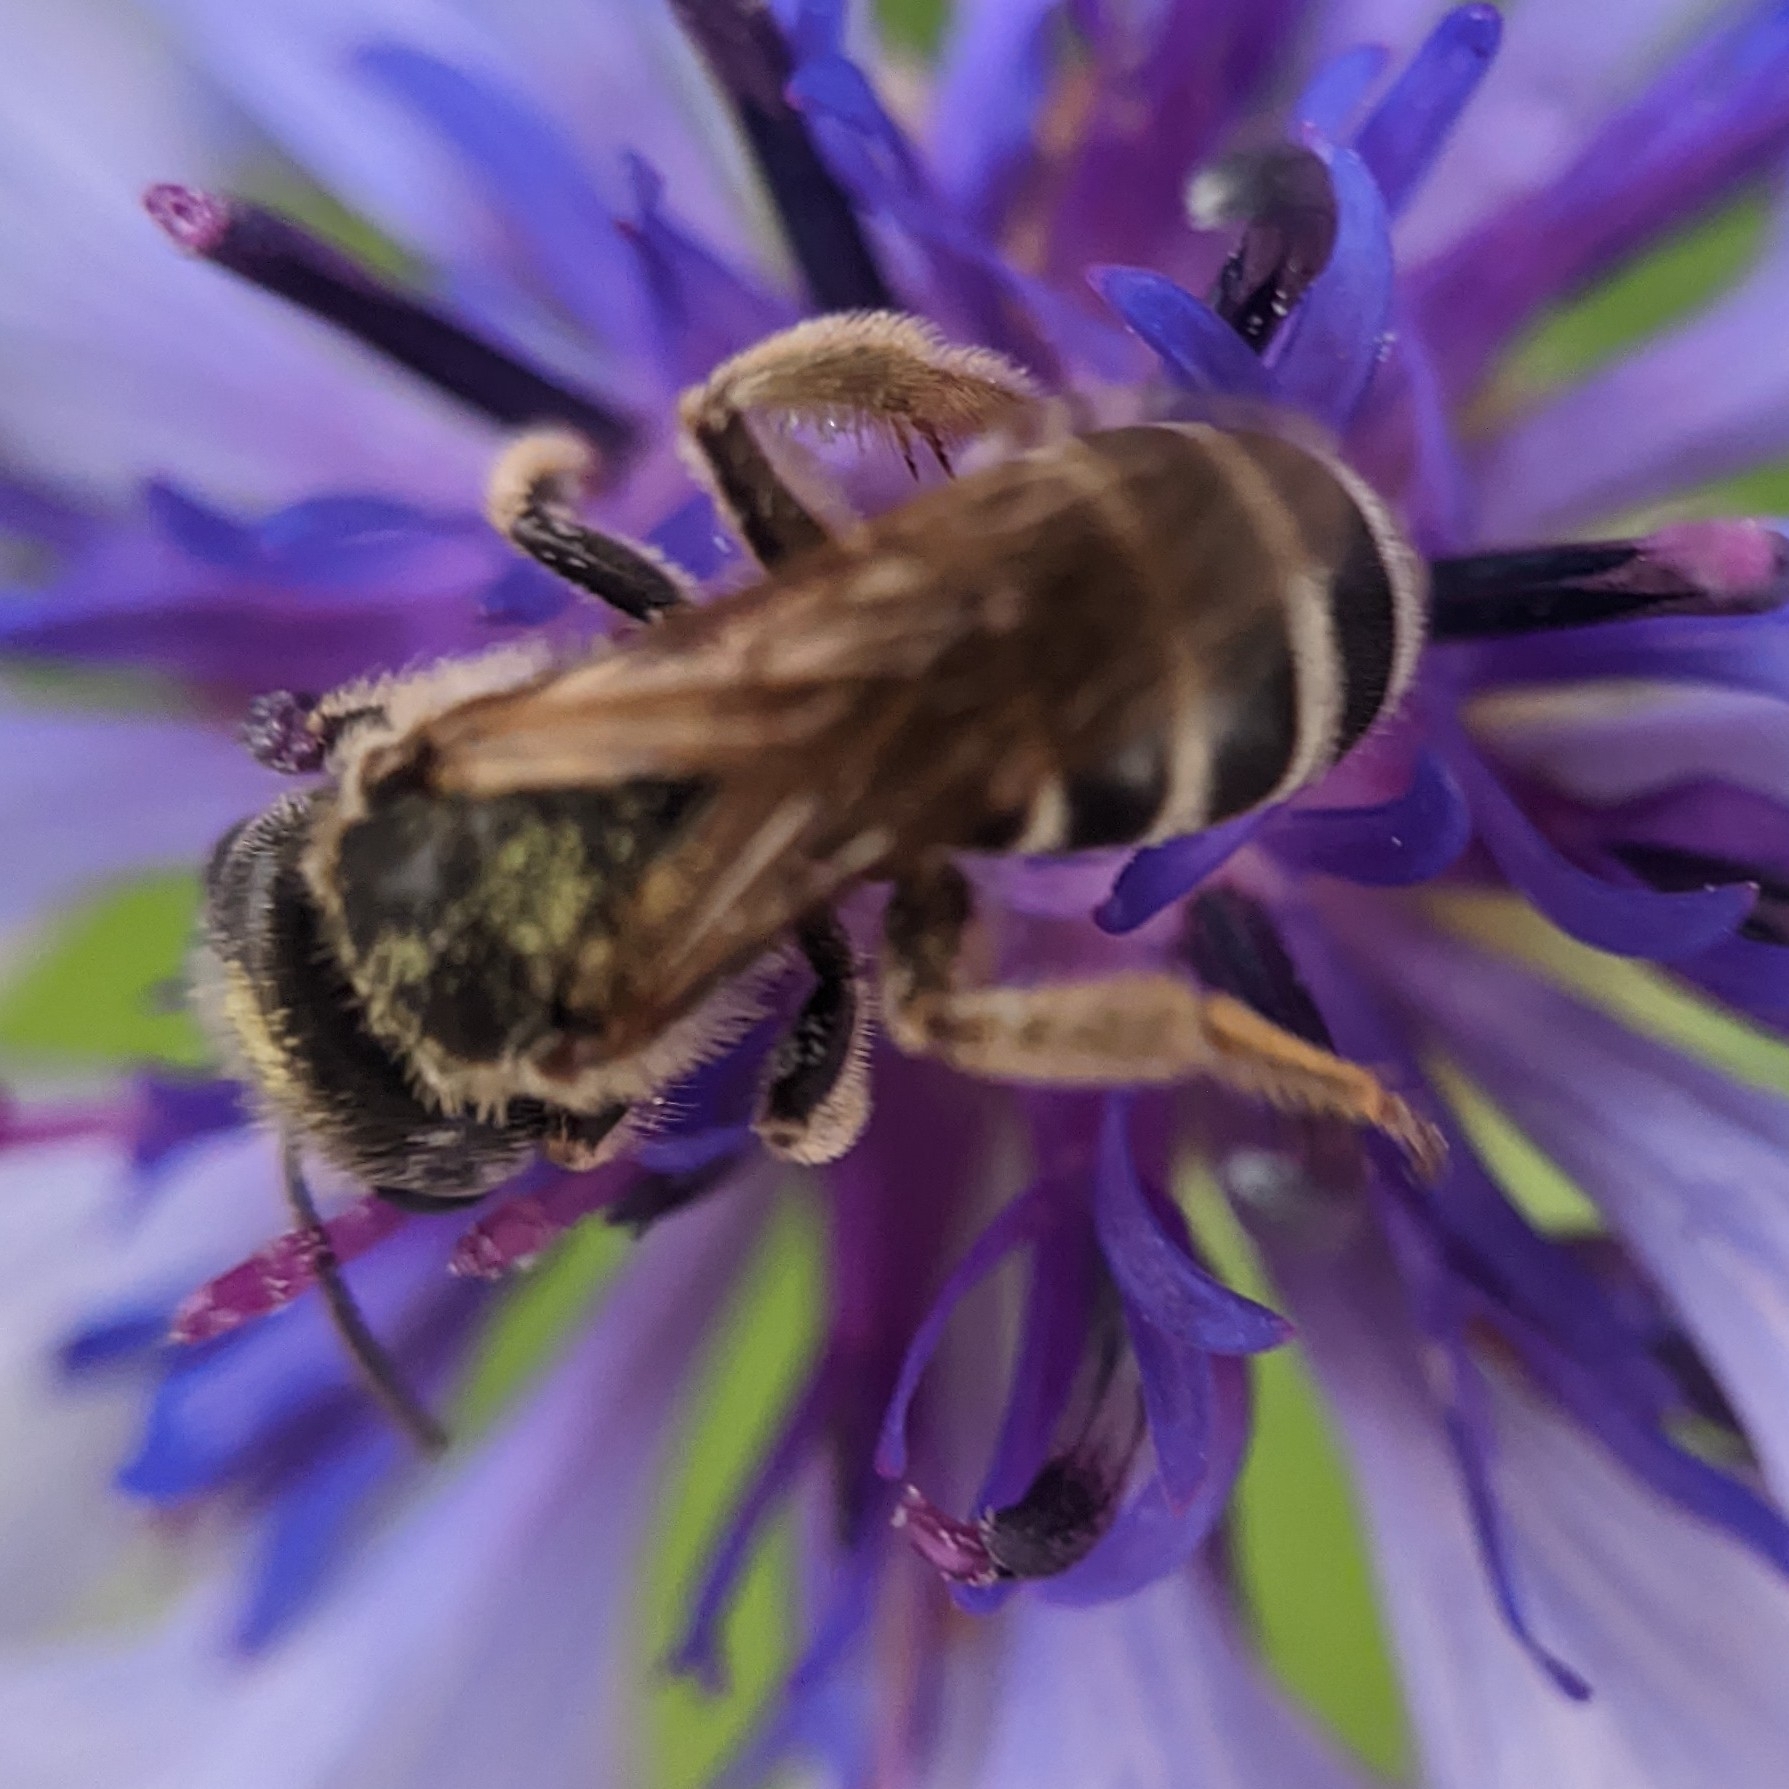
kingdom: Animalia
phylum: Arthropoda
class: Insecta
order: Hymenoptera
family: Halictidae
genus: Halictus
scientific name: Halictus ligatus
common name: Ligated furrow bee
